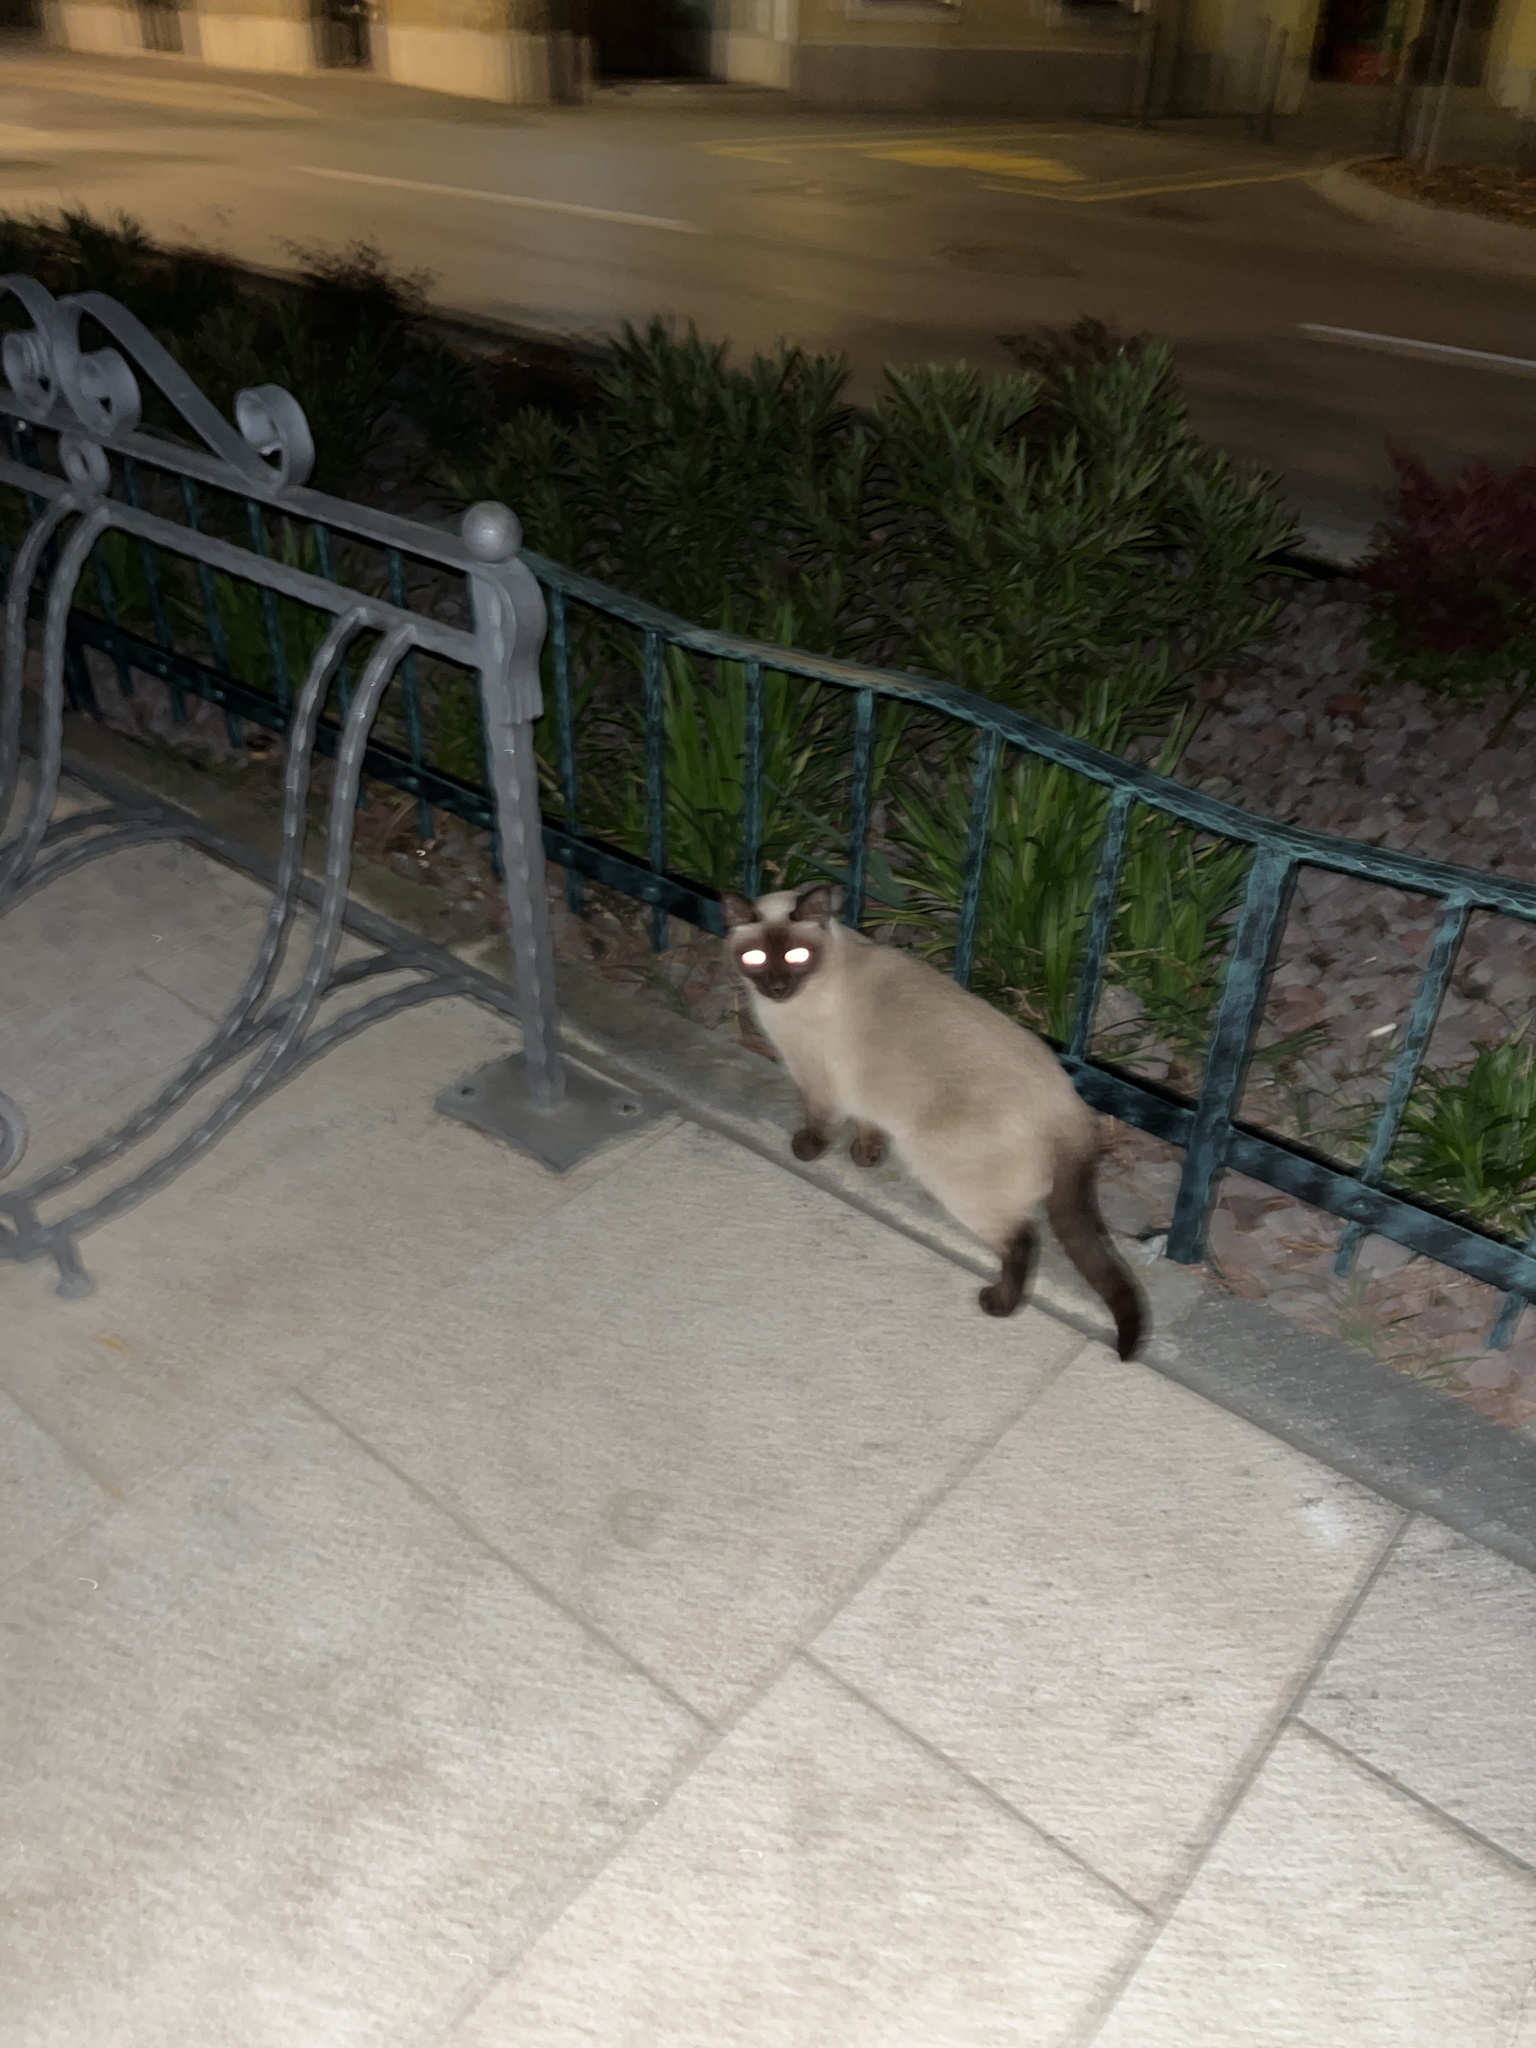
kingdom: Animalia
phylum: Chordata
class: Mammalia
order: Carnivora
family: Felidae
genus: Felis
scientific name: Felis catus
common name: Domestic cat
